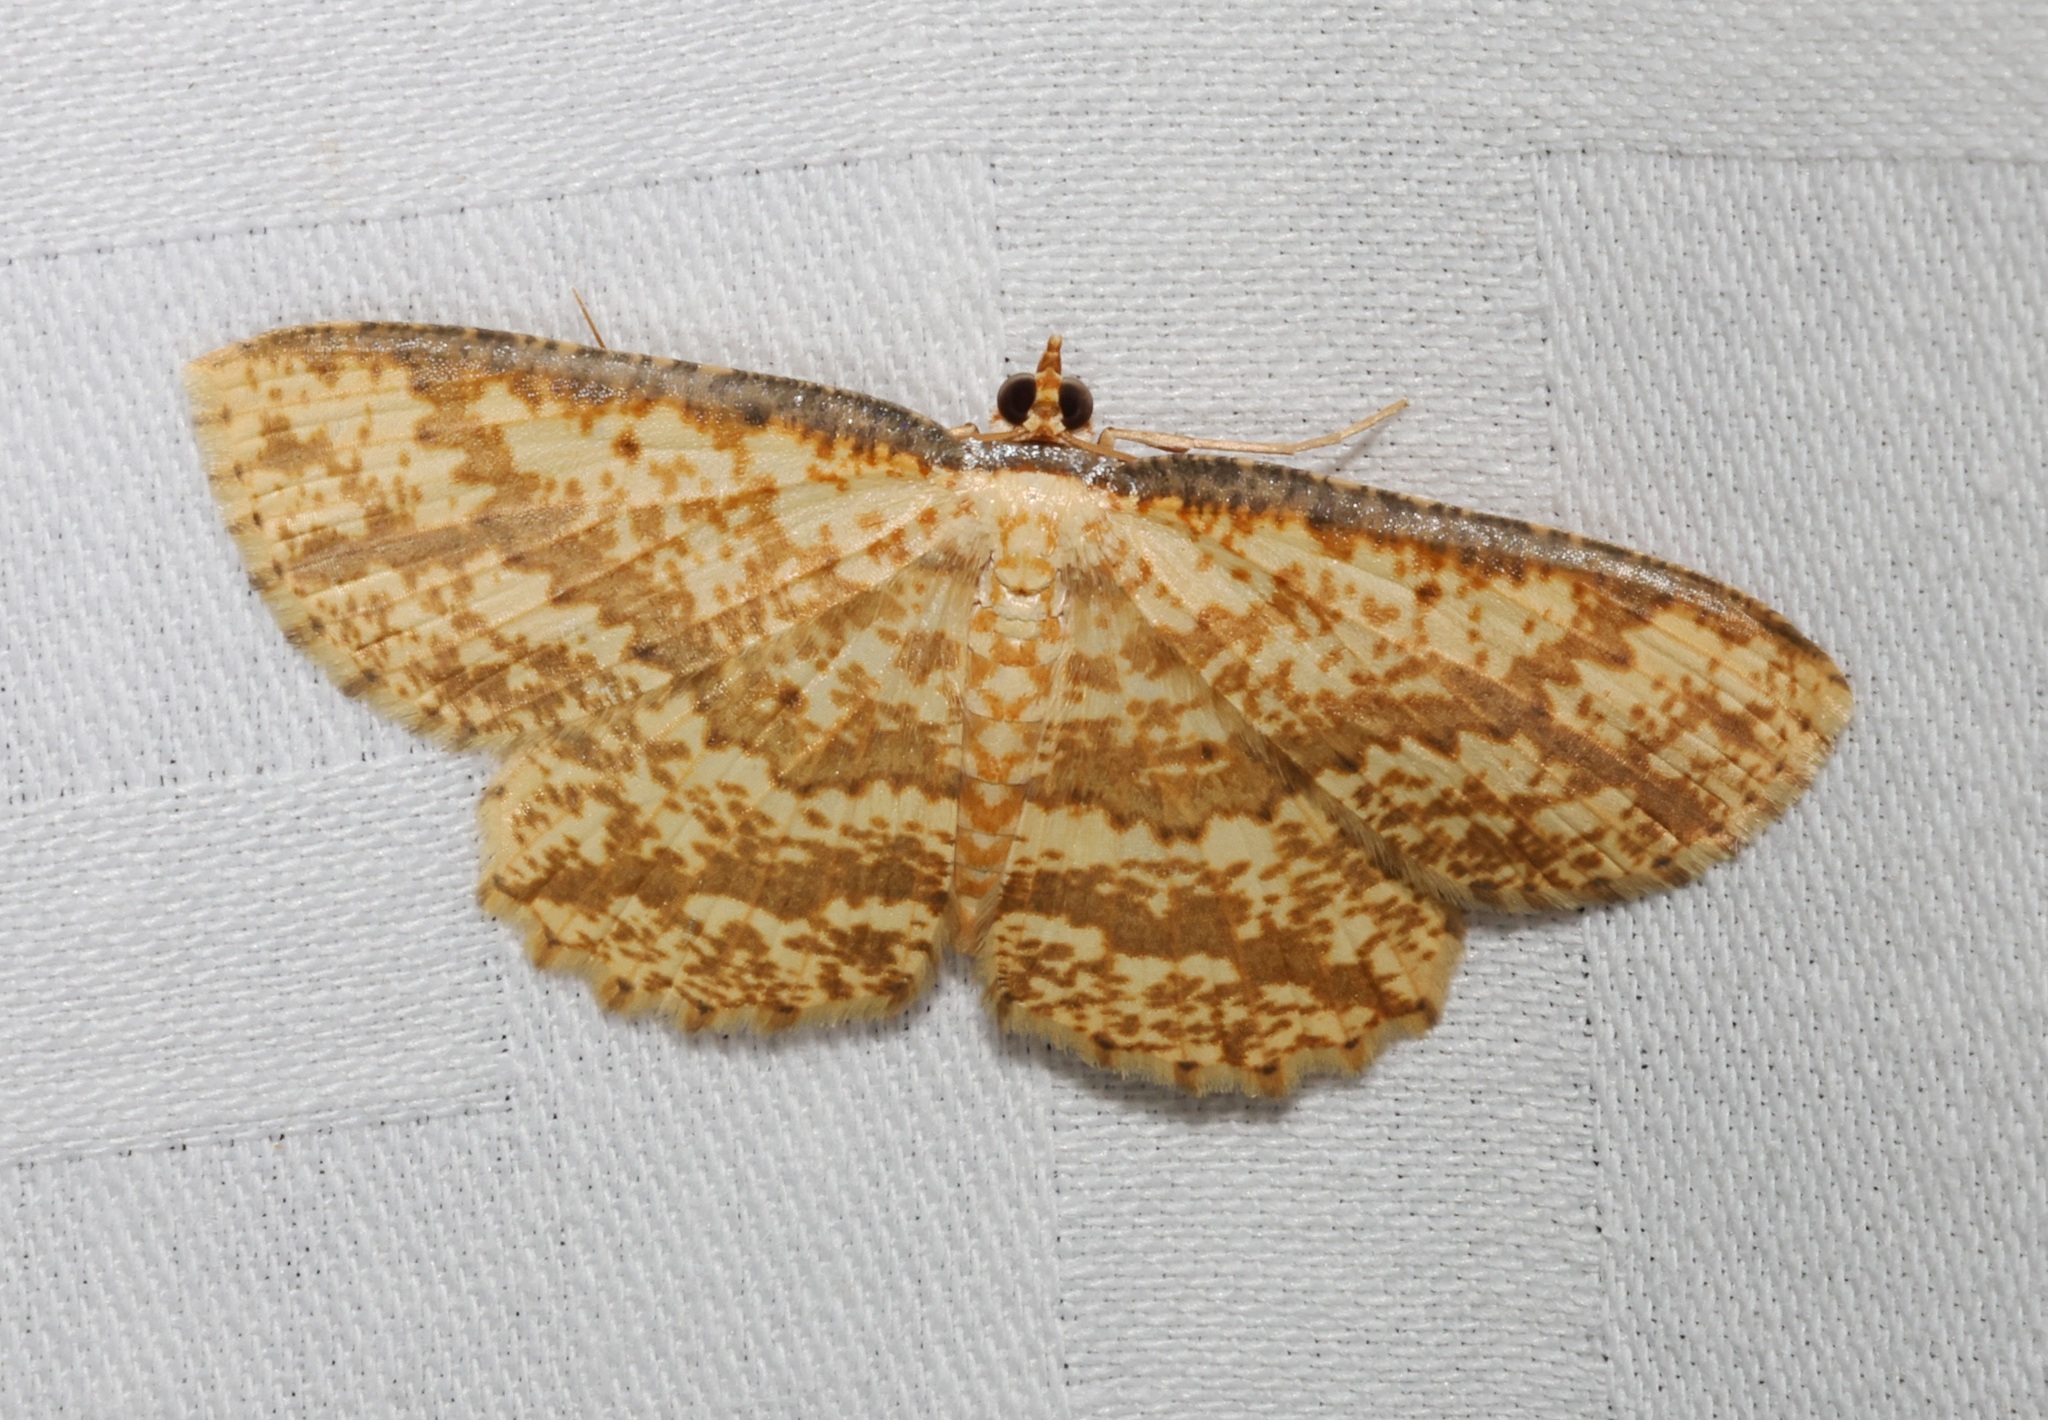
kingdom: Animalia
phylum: Arthropoda
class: Insecta
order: Lepidoptera
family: Geometridae
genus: Synegia
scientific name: Synegia eumeleata
